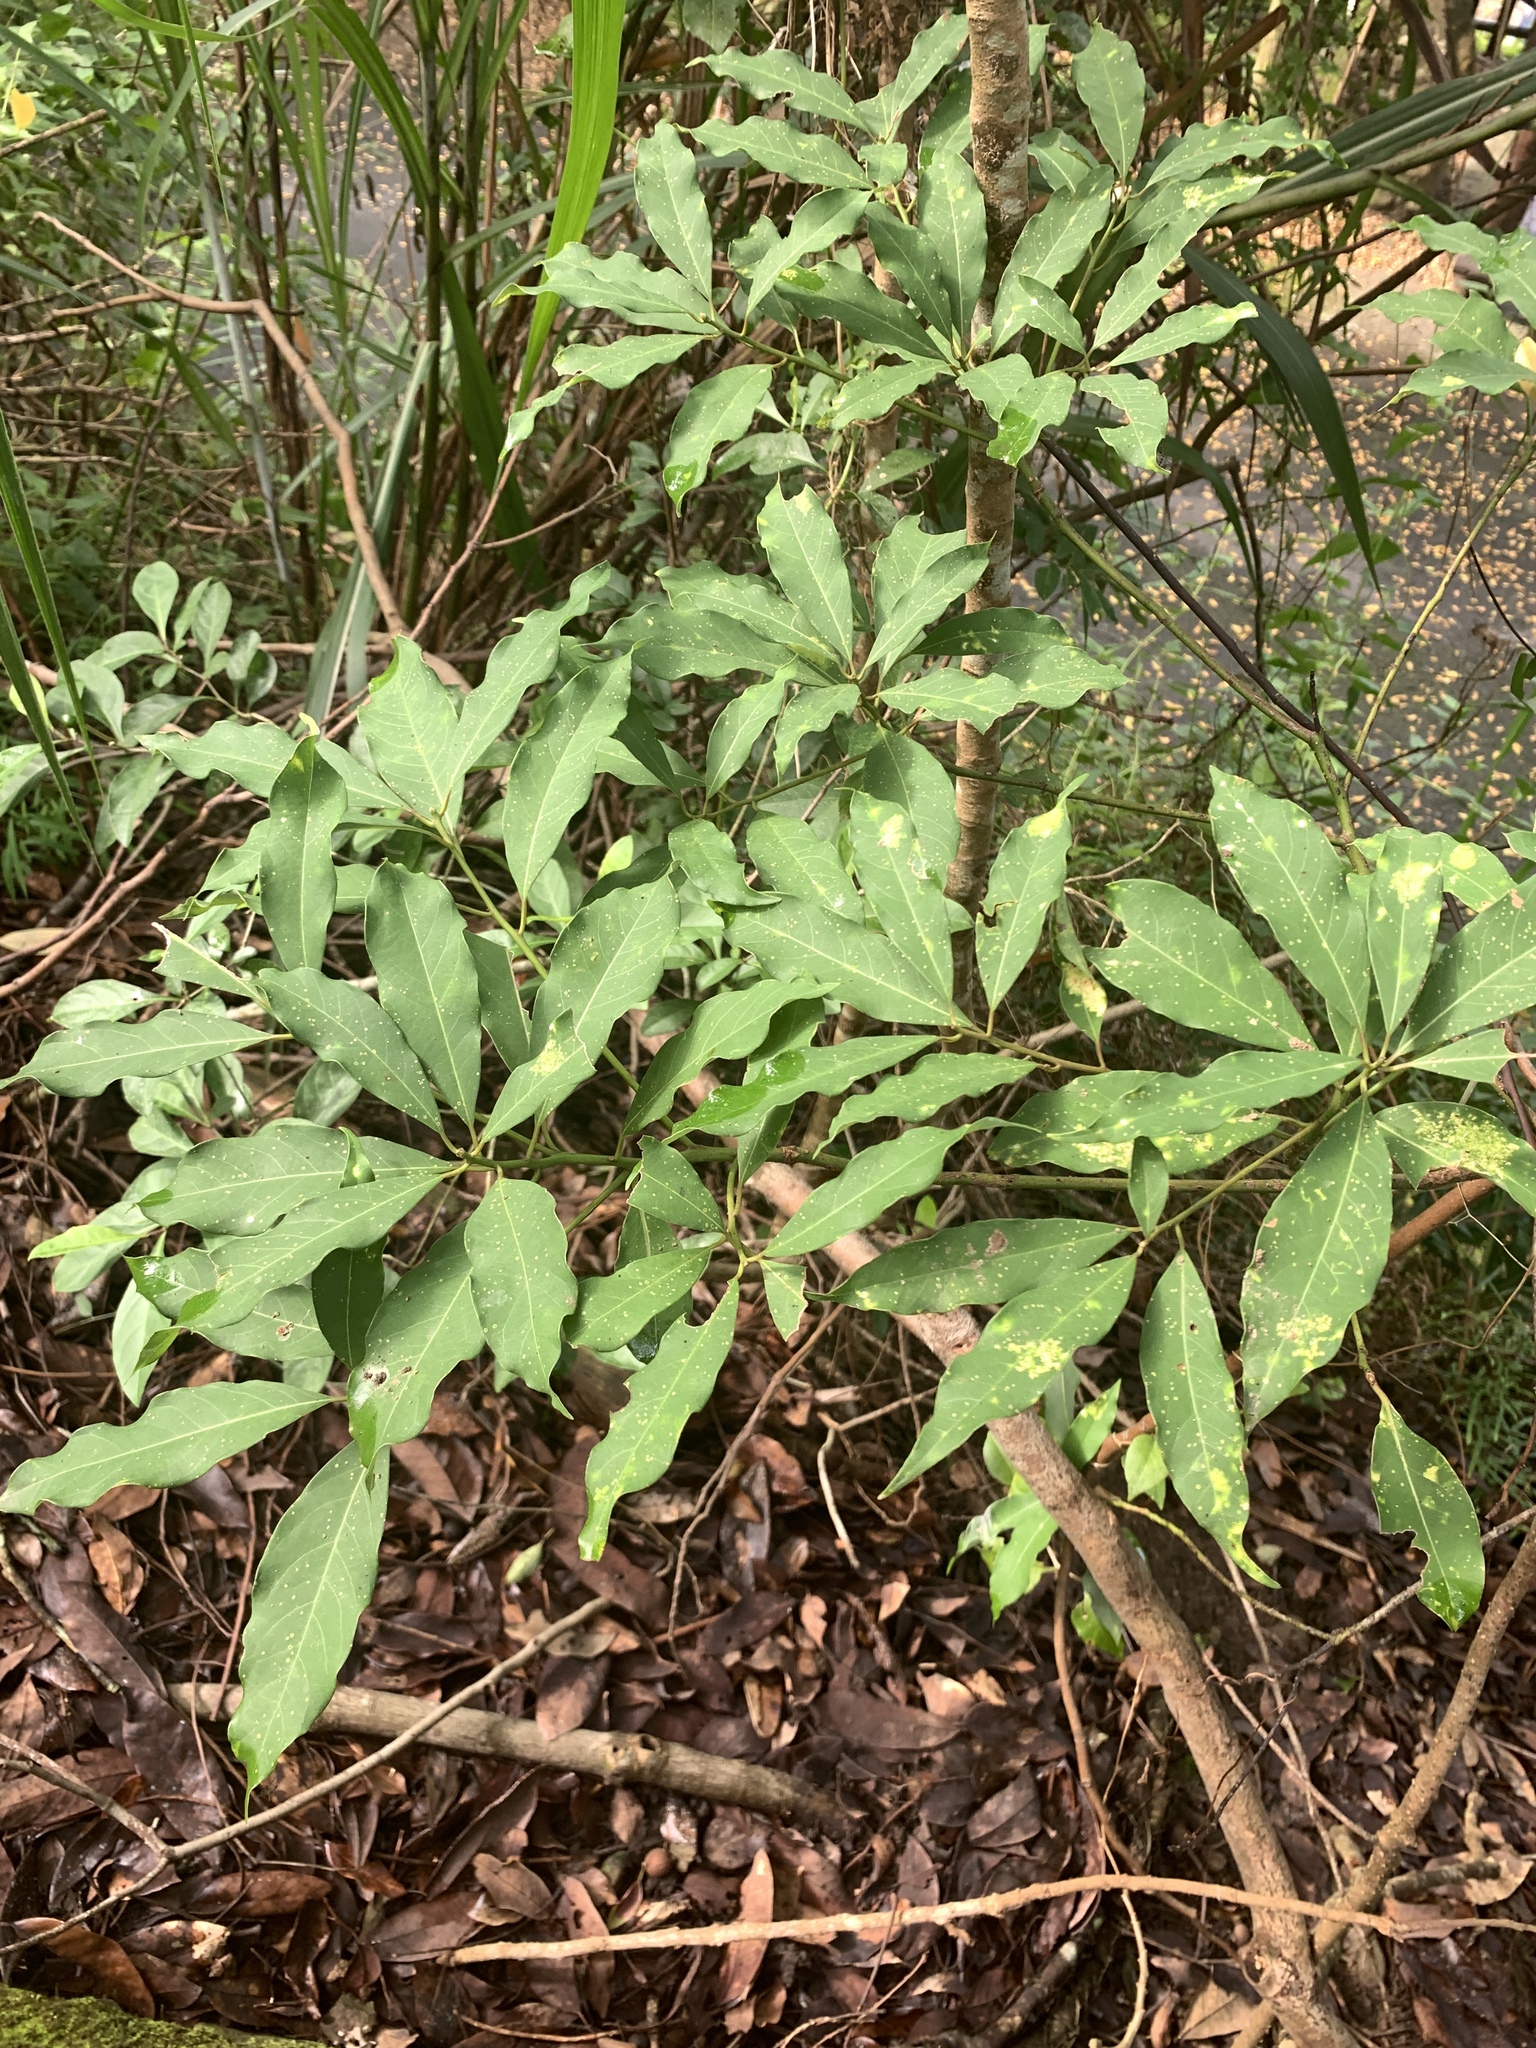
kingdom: Plantae
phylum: Tracheophyta
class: Magnoliopsida
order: Laurales
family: Lauraceae
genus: Machilus
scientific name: Machilus zuihoensis
